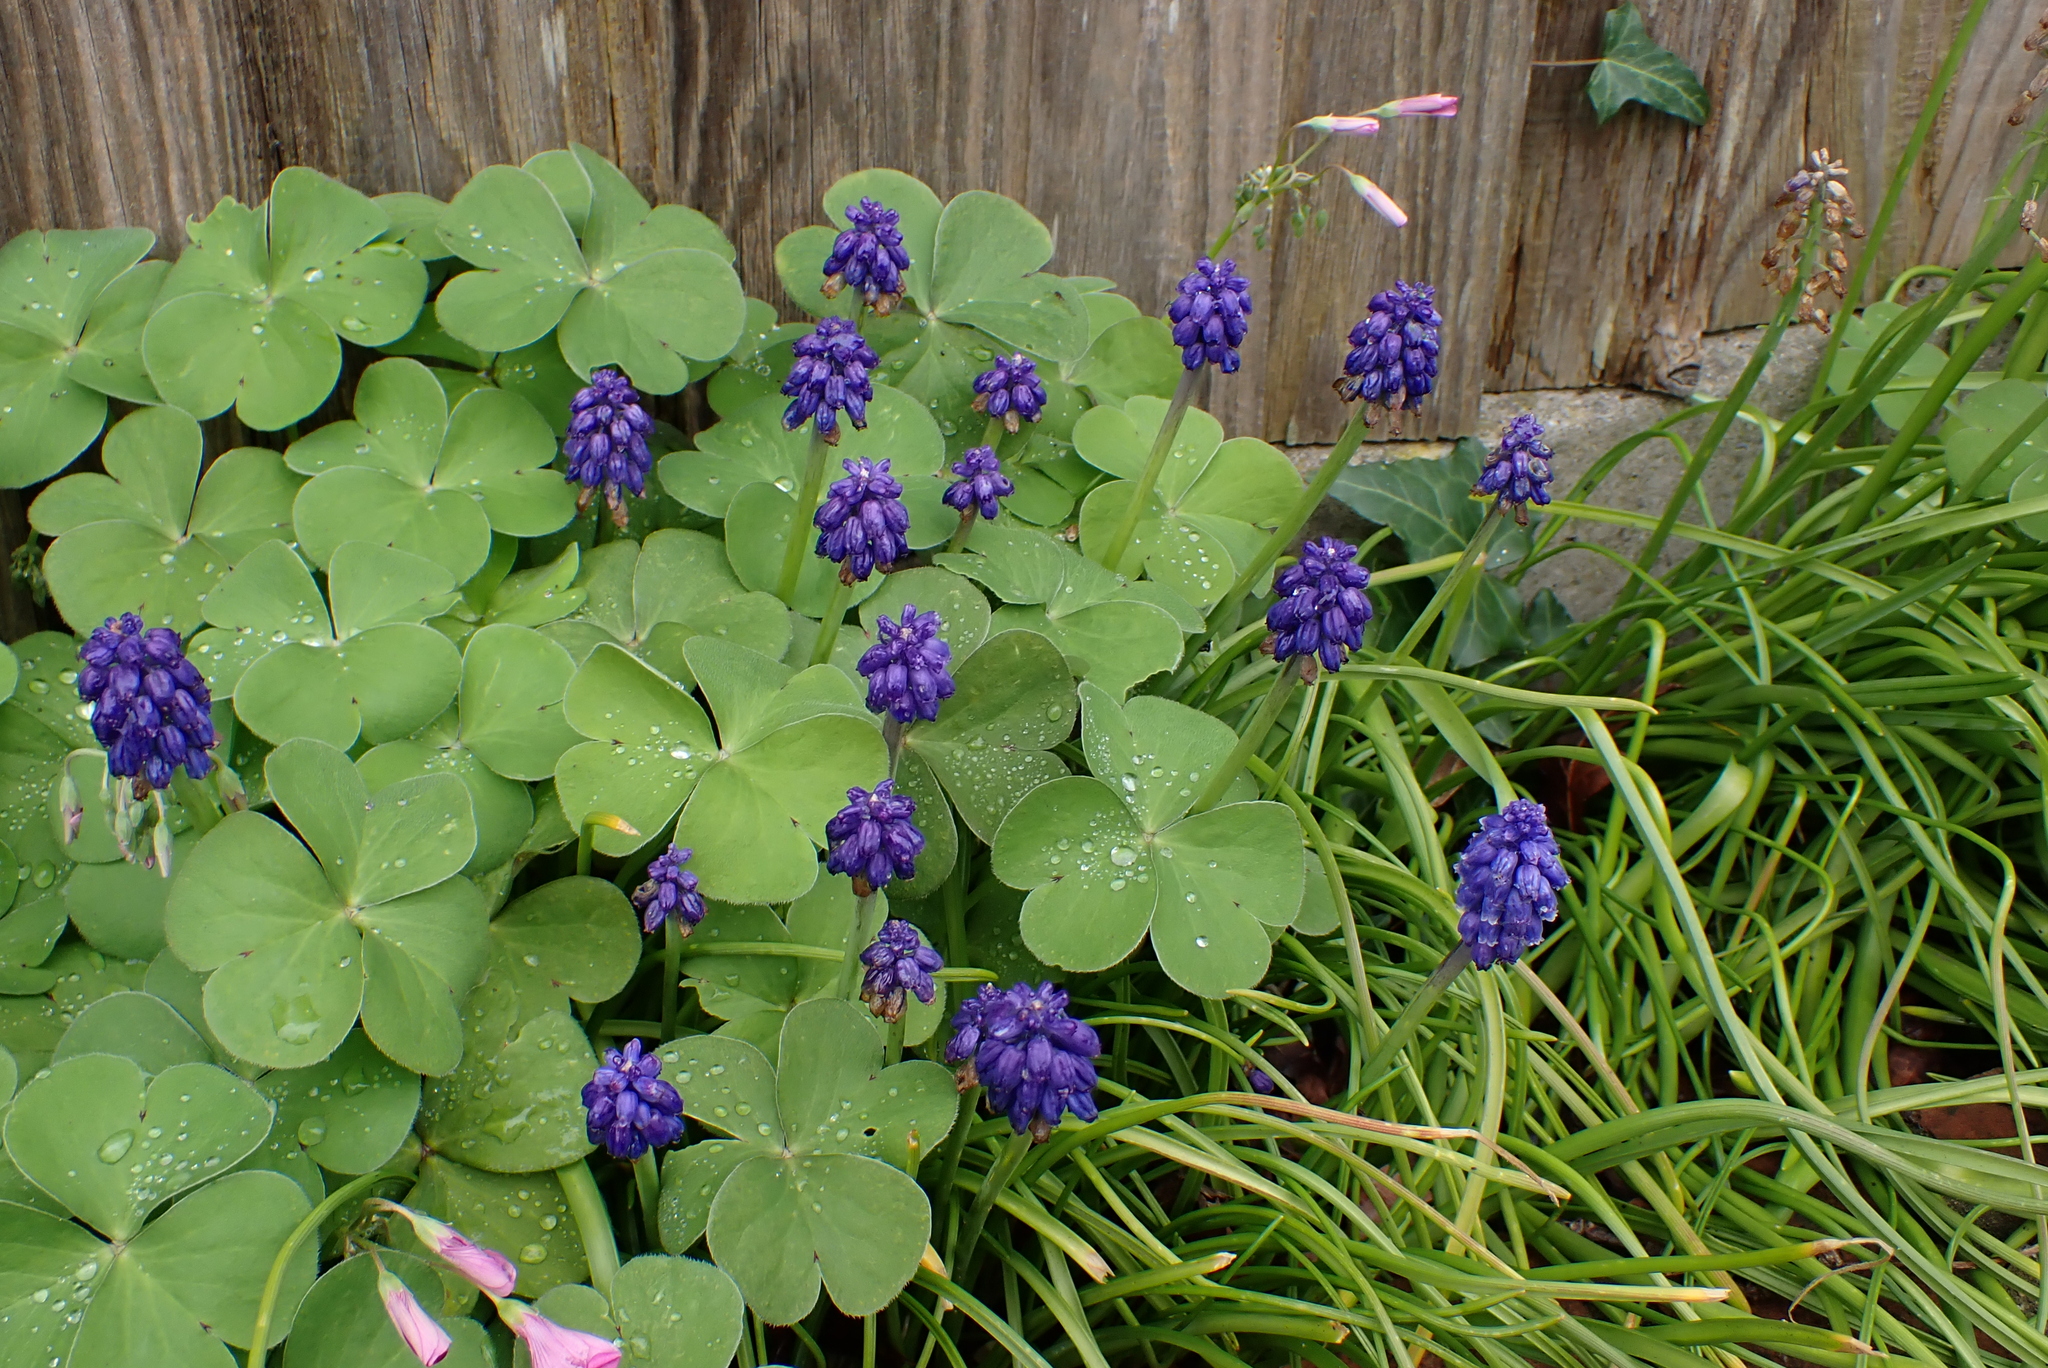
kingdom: Plantae
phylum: Tracheophyta
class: Liliopsida
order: Asparagales
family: Asparagaceae
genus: Muscari
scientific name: Muscari armeniacum
